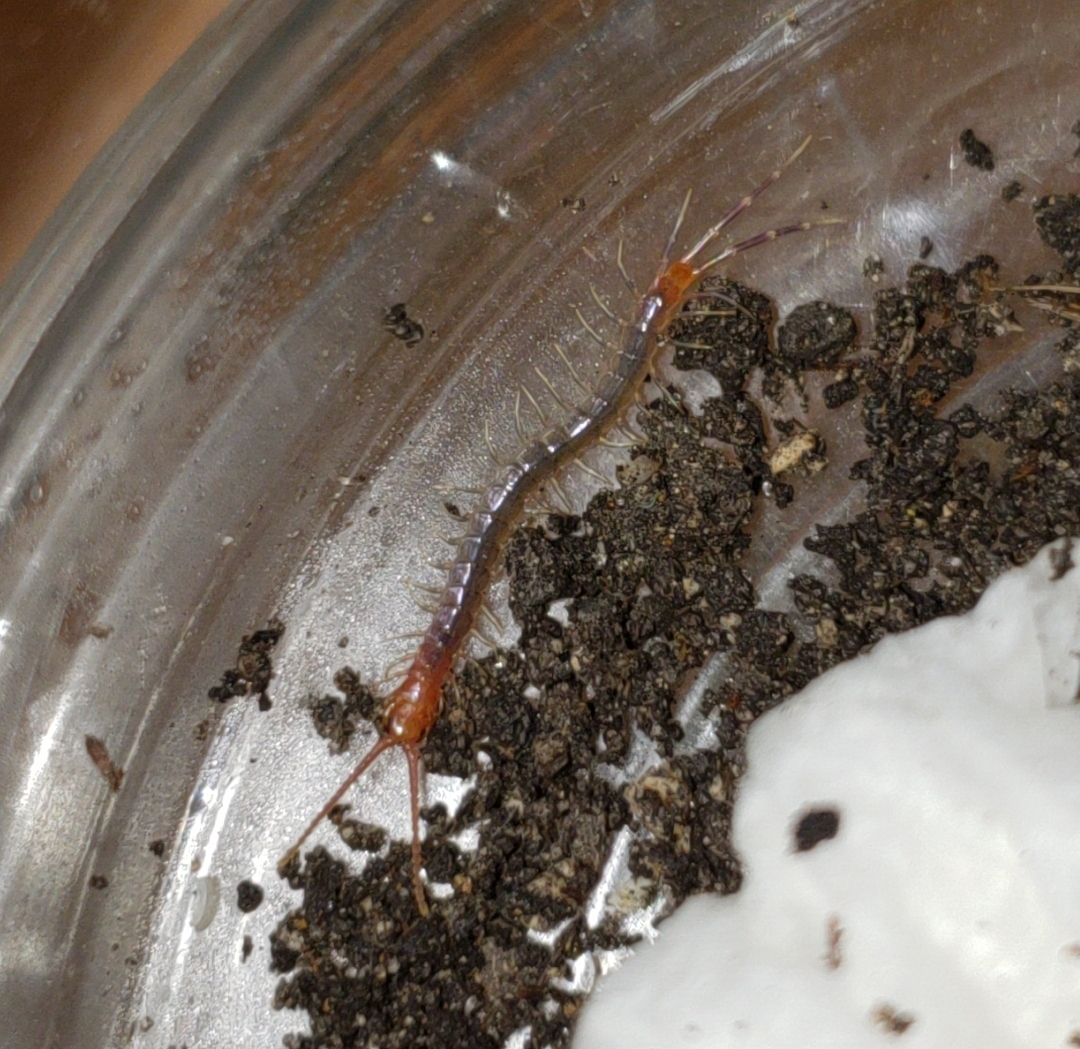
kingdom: Animalia
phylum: Arthropoda
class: Chilopoda
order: Scolopendromorpha
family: Scolopendridae
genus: Rhysida
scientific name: Rhysida longipes
